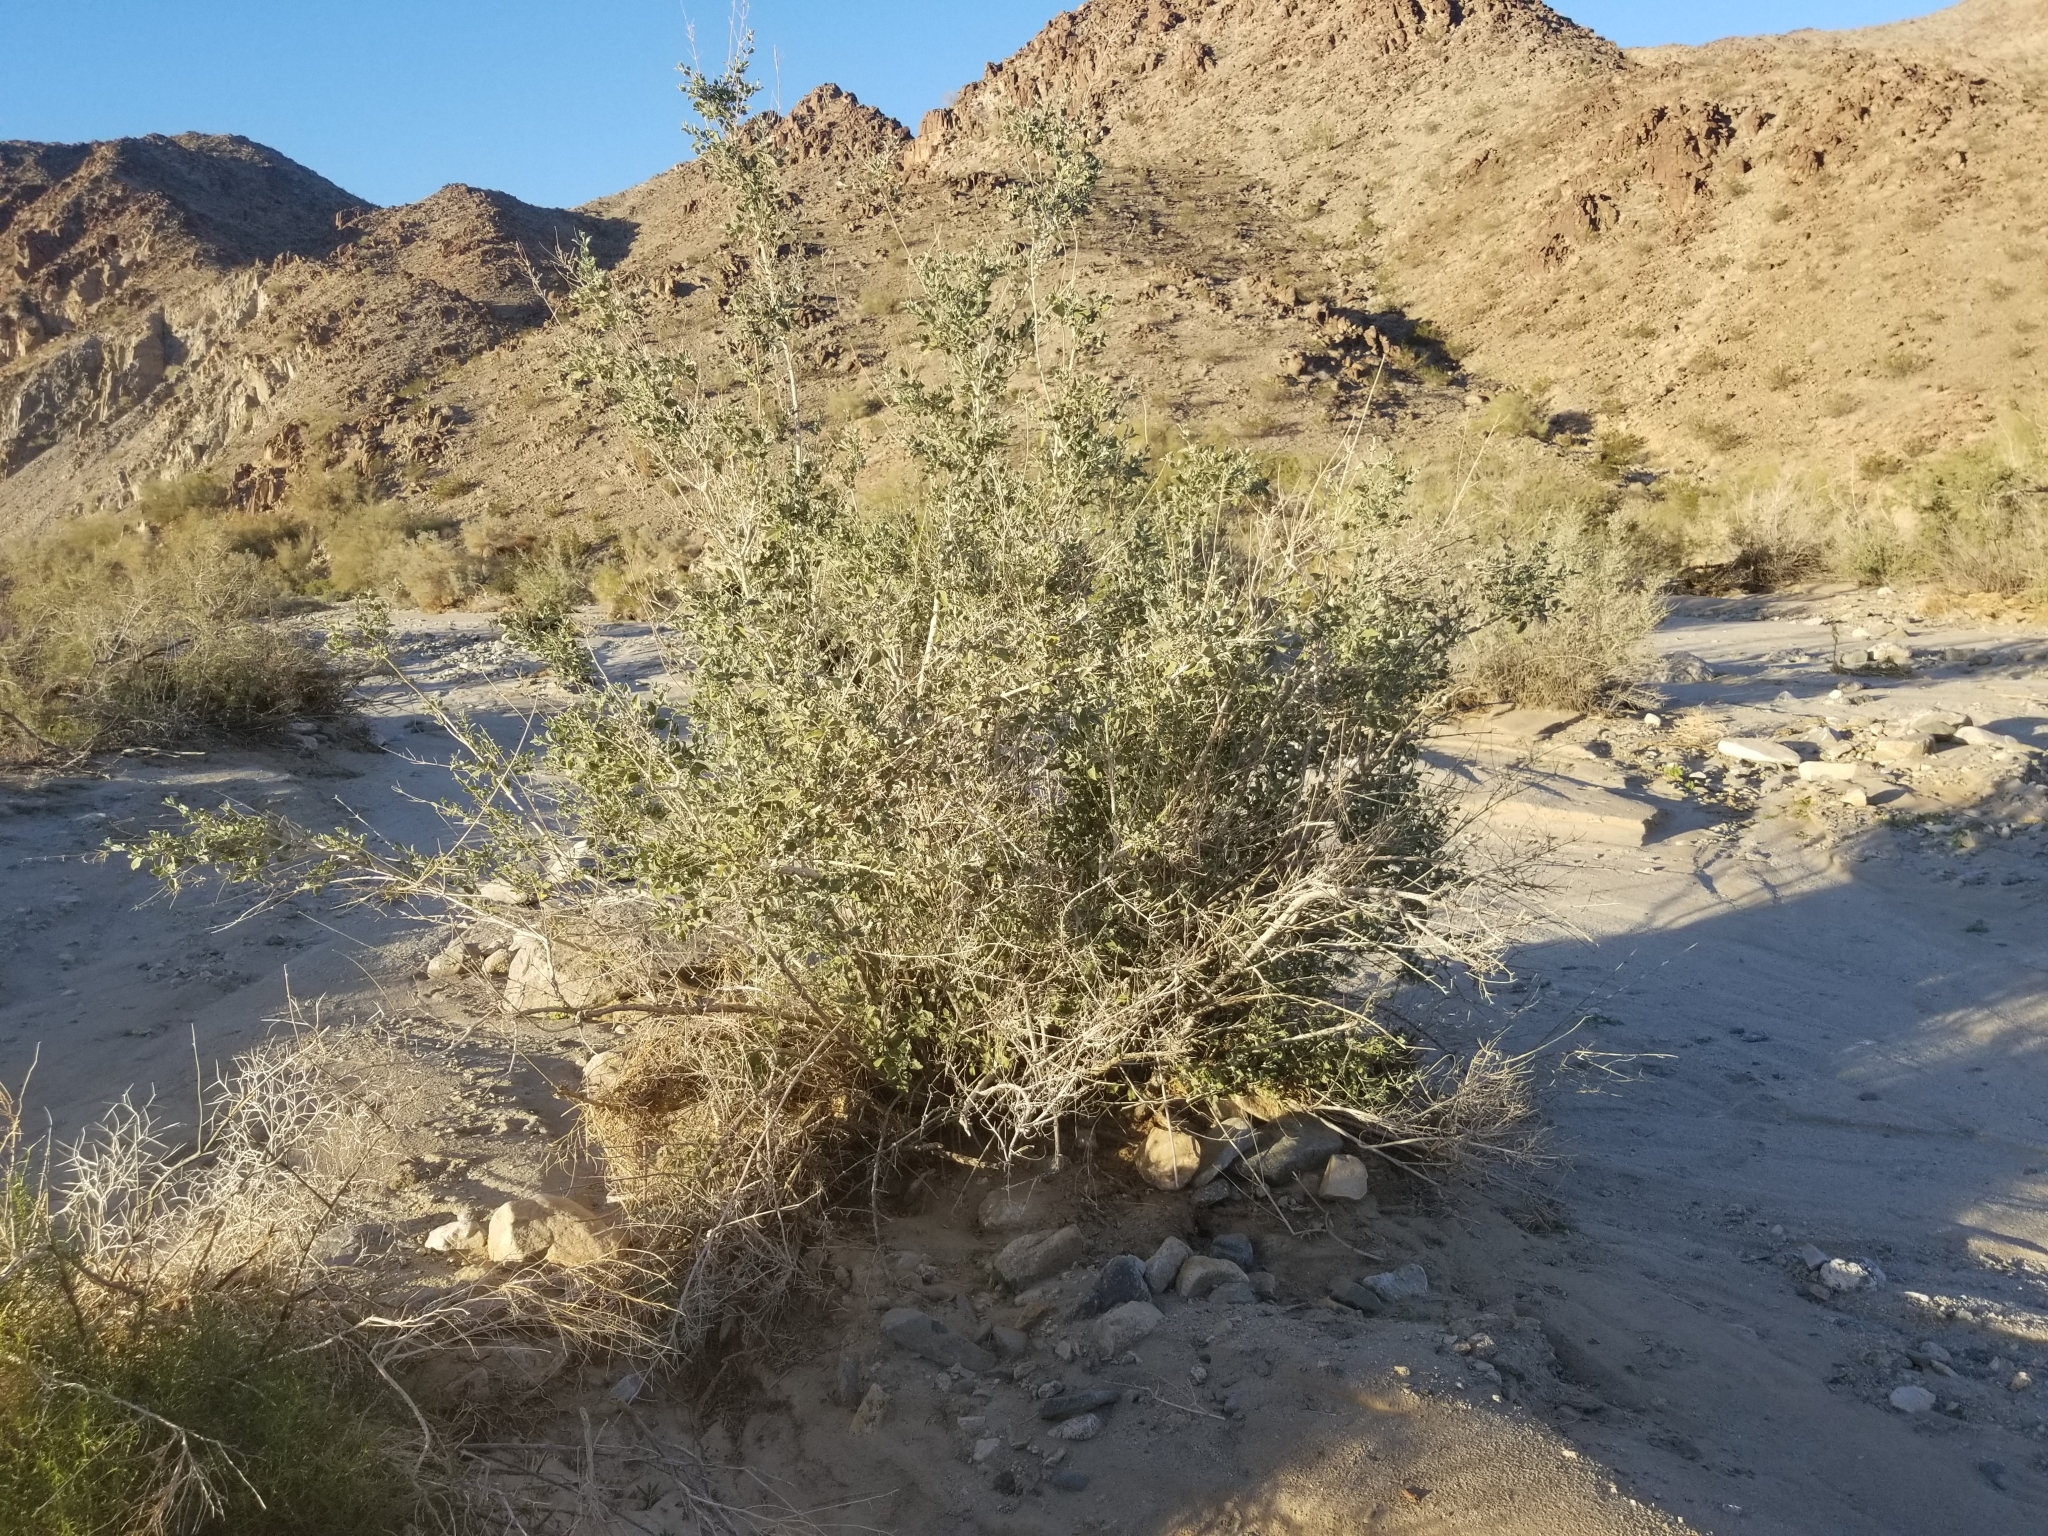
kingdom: Plantae
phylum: Tracheophyta
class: Magnoliopsida
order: Lamiales
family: Lamiaceae
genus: Condea
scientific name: Condea emoryi
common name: Chia
